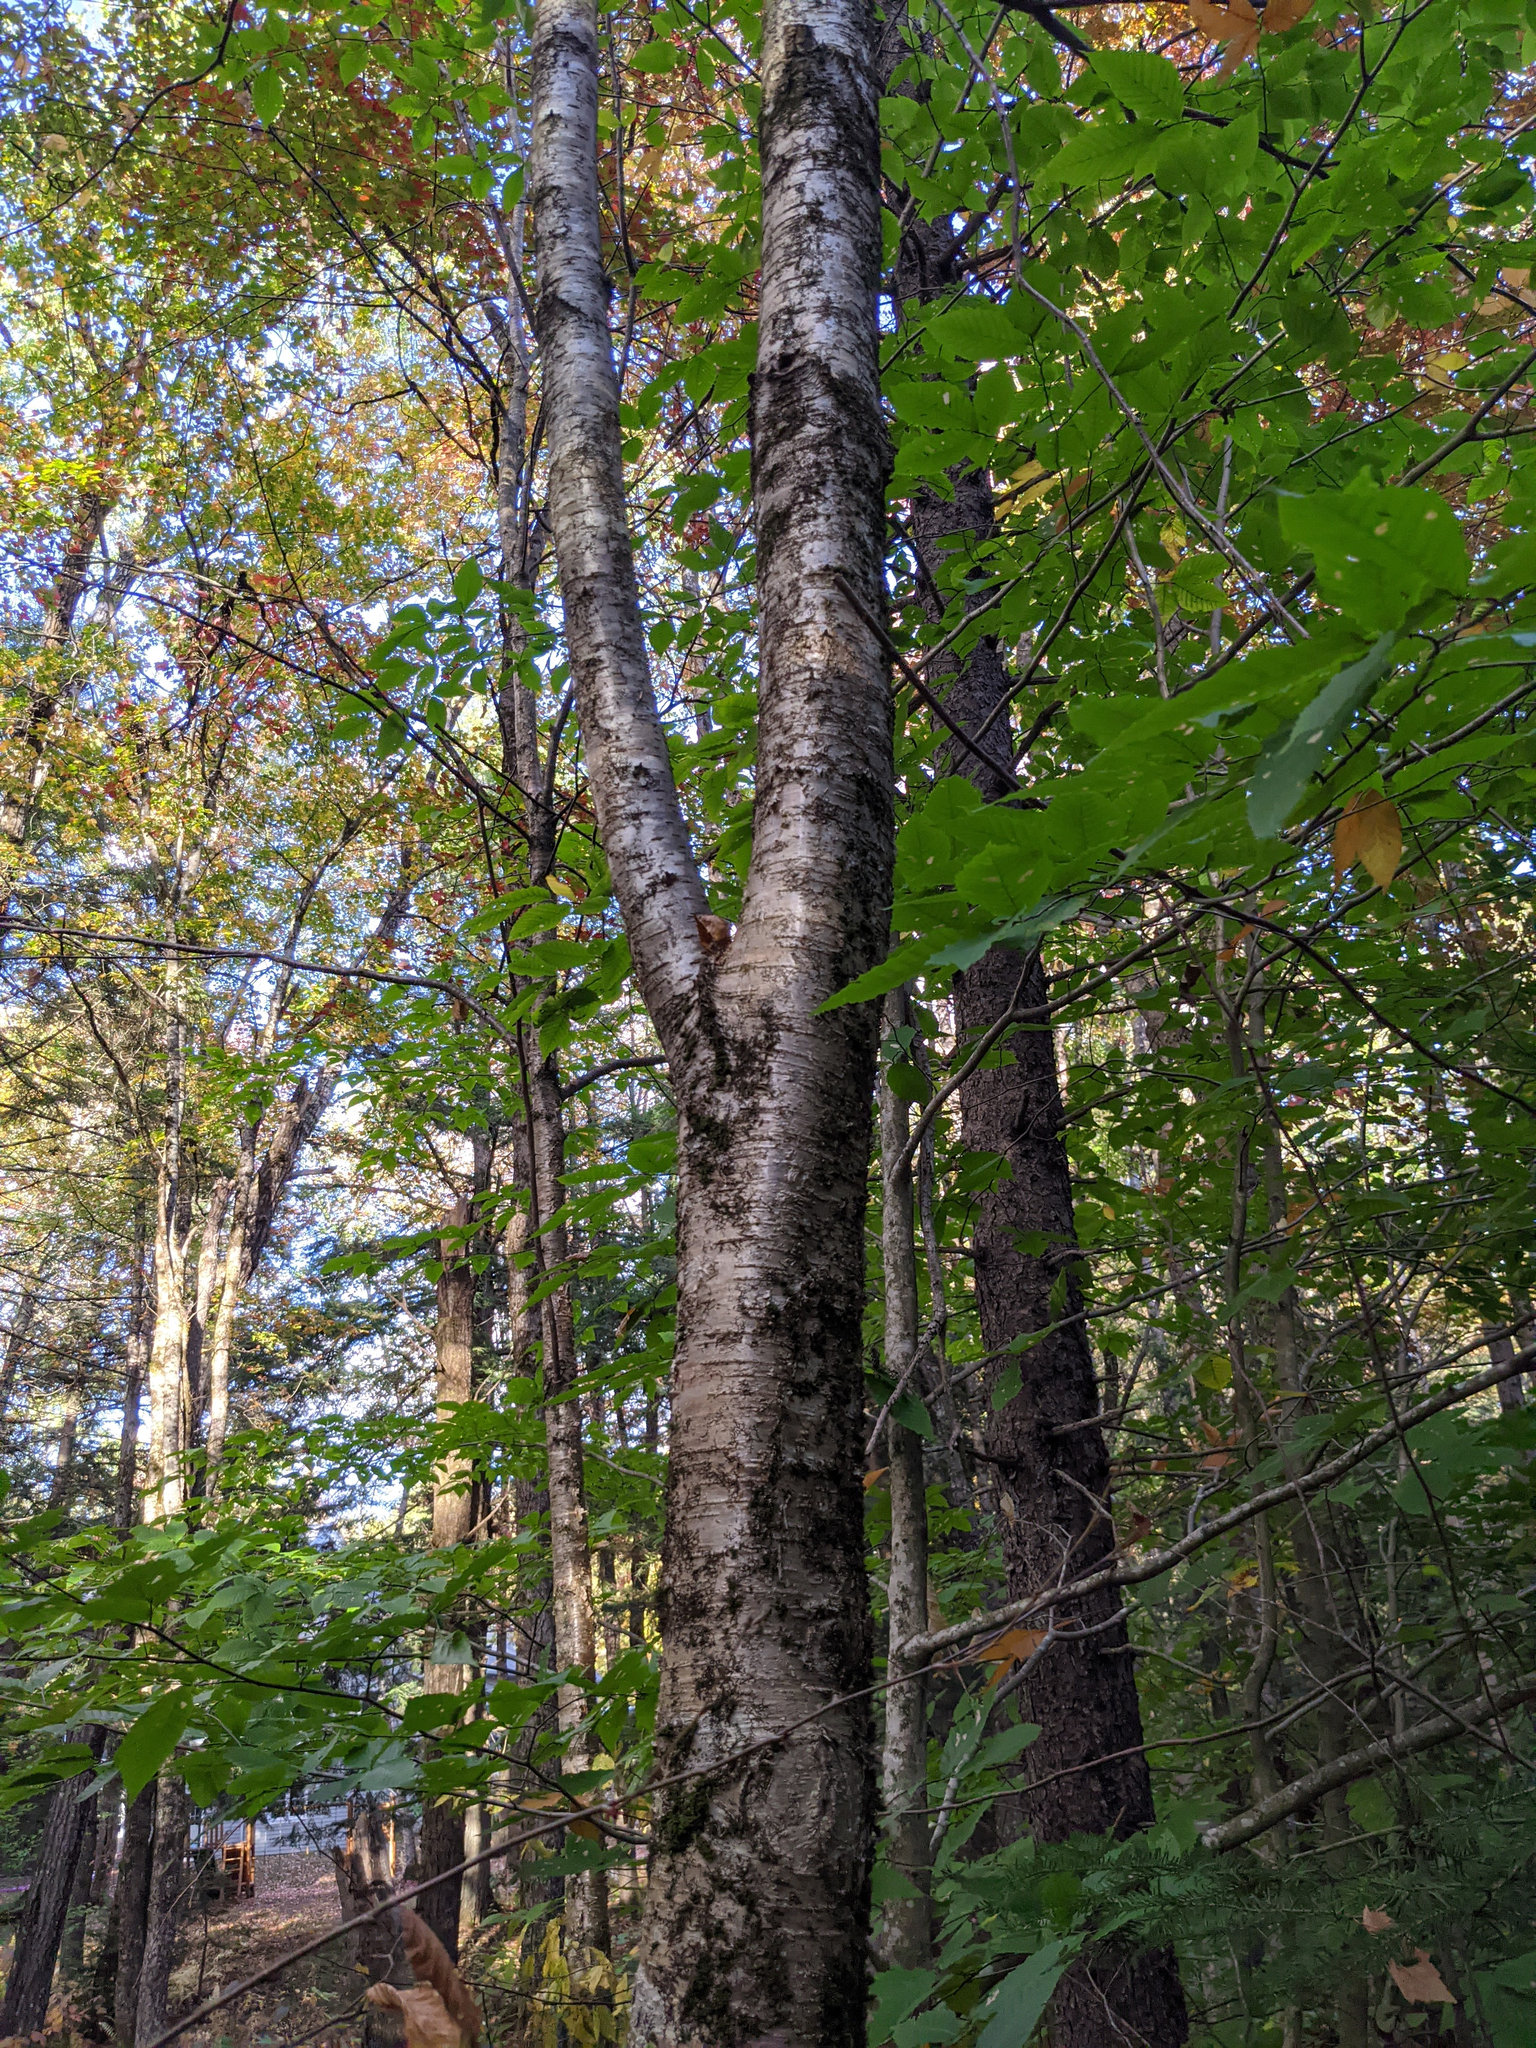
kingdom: Plantae
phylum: Tracheophyta
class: Magnoliopsida
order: Fagales
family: Betulaceae
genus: Betula
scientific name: Betula alleghaniensis
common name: Yellow birch
